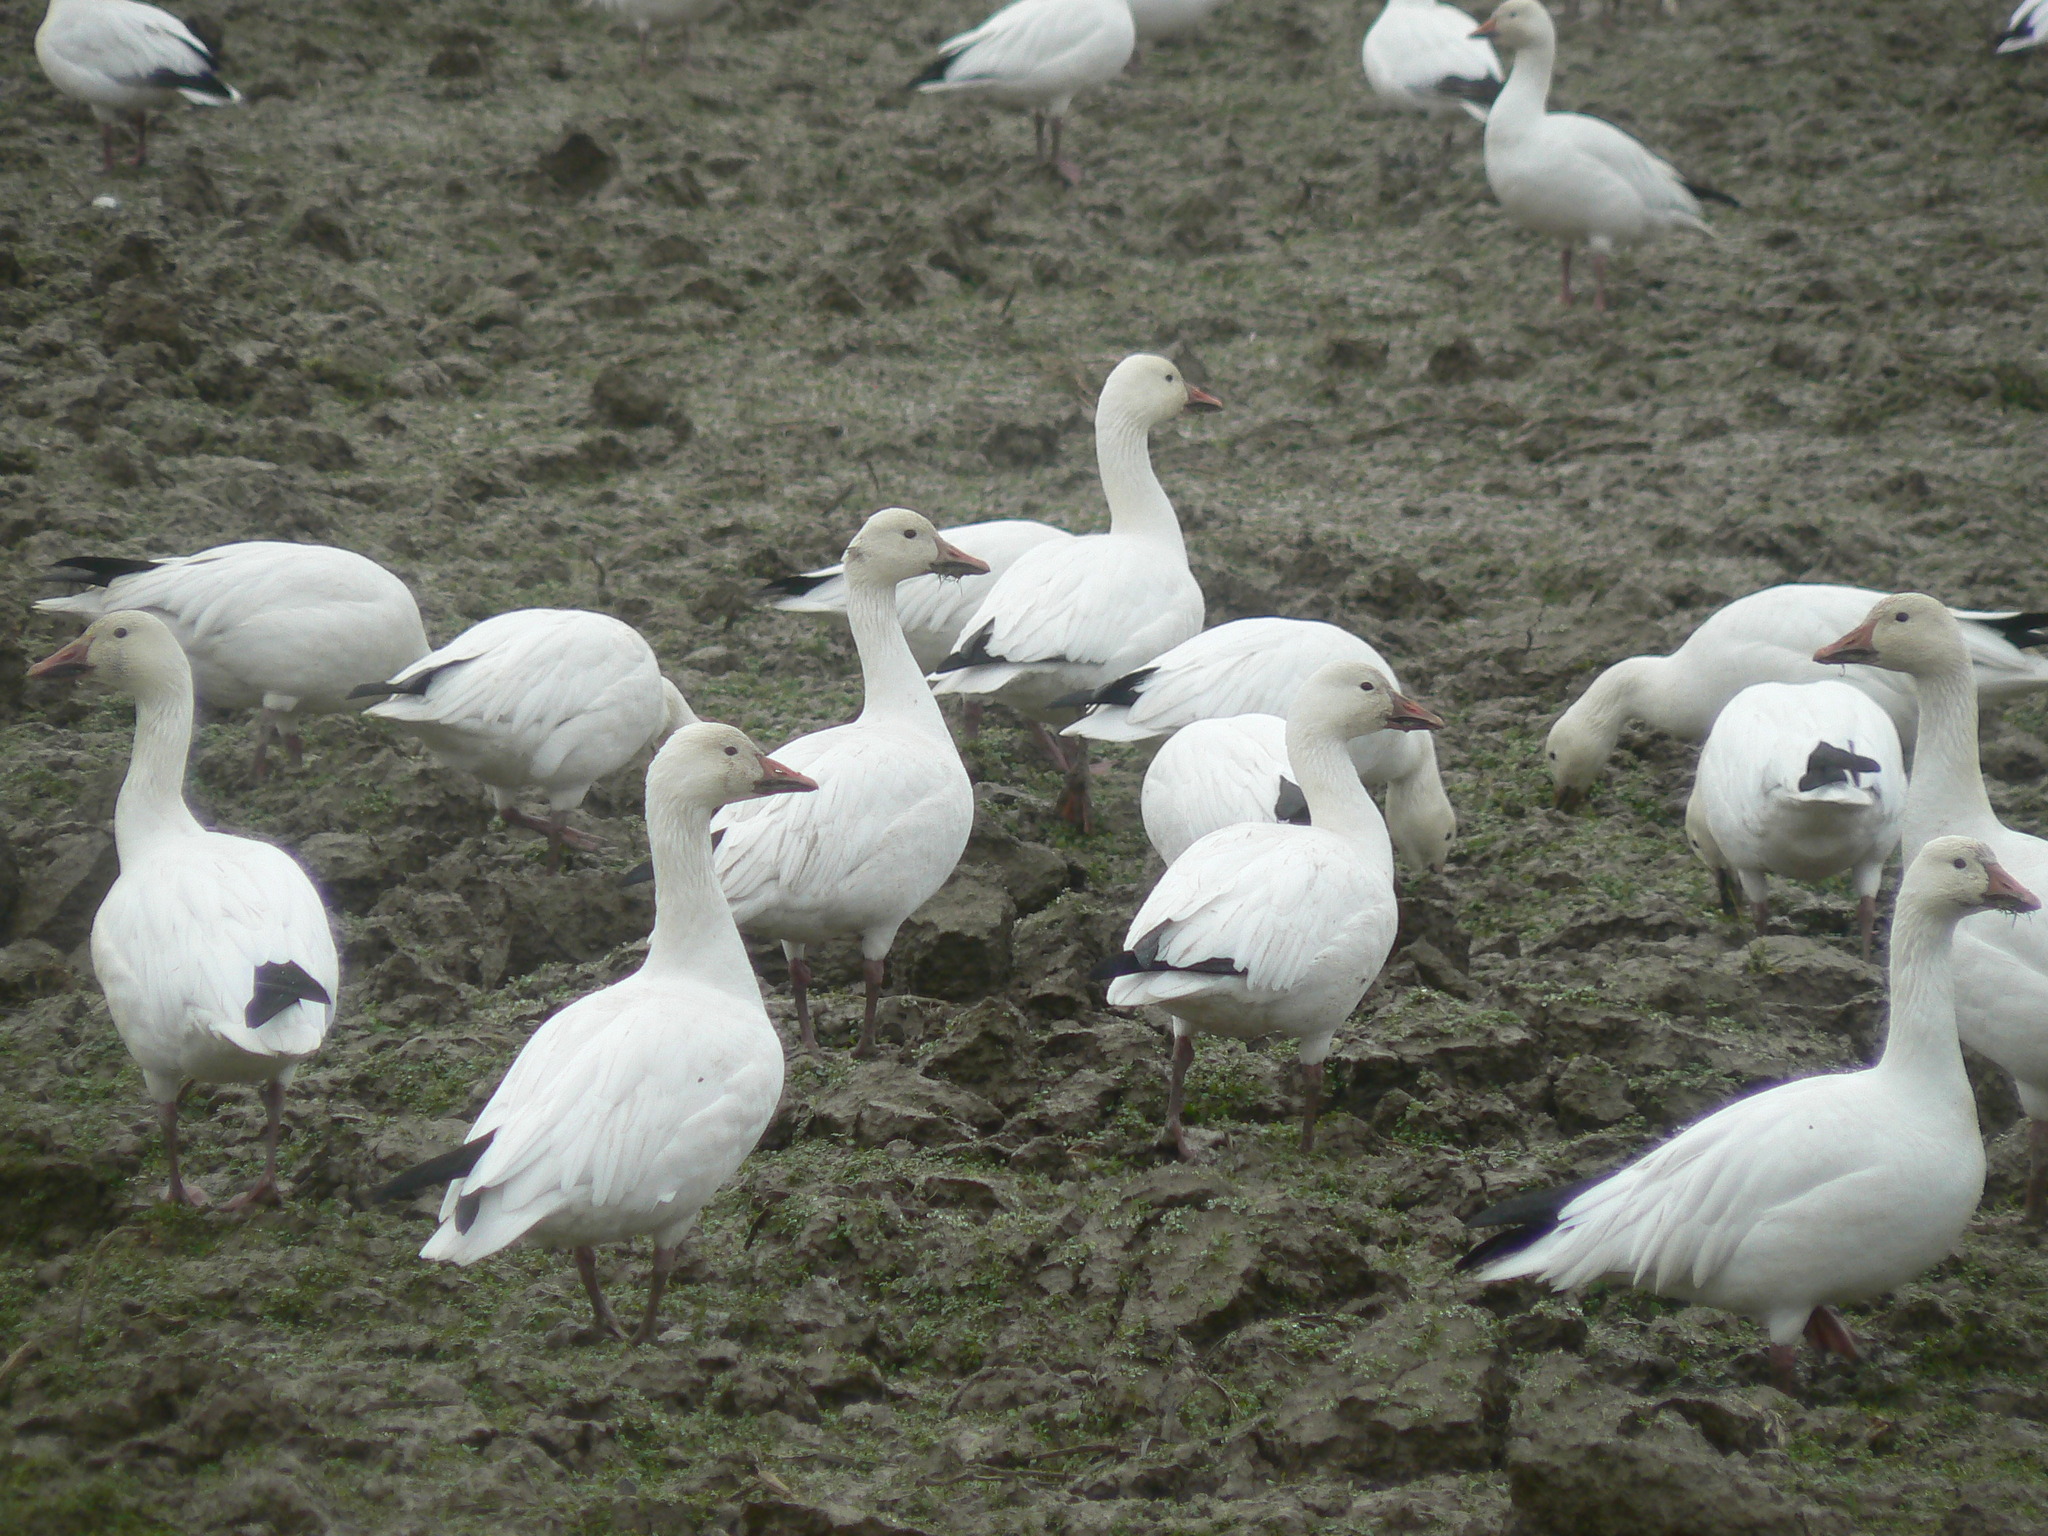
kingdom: Animalia
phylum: Chordata
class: Aves
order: Anseriformes
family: Anatidae
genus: Anser
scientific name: Anser caerulescens
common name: Snow goose
